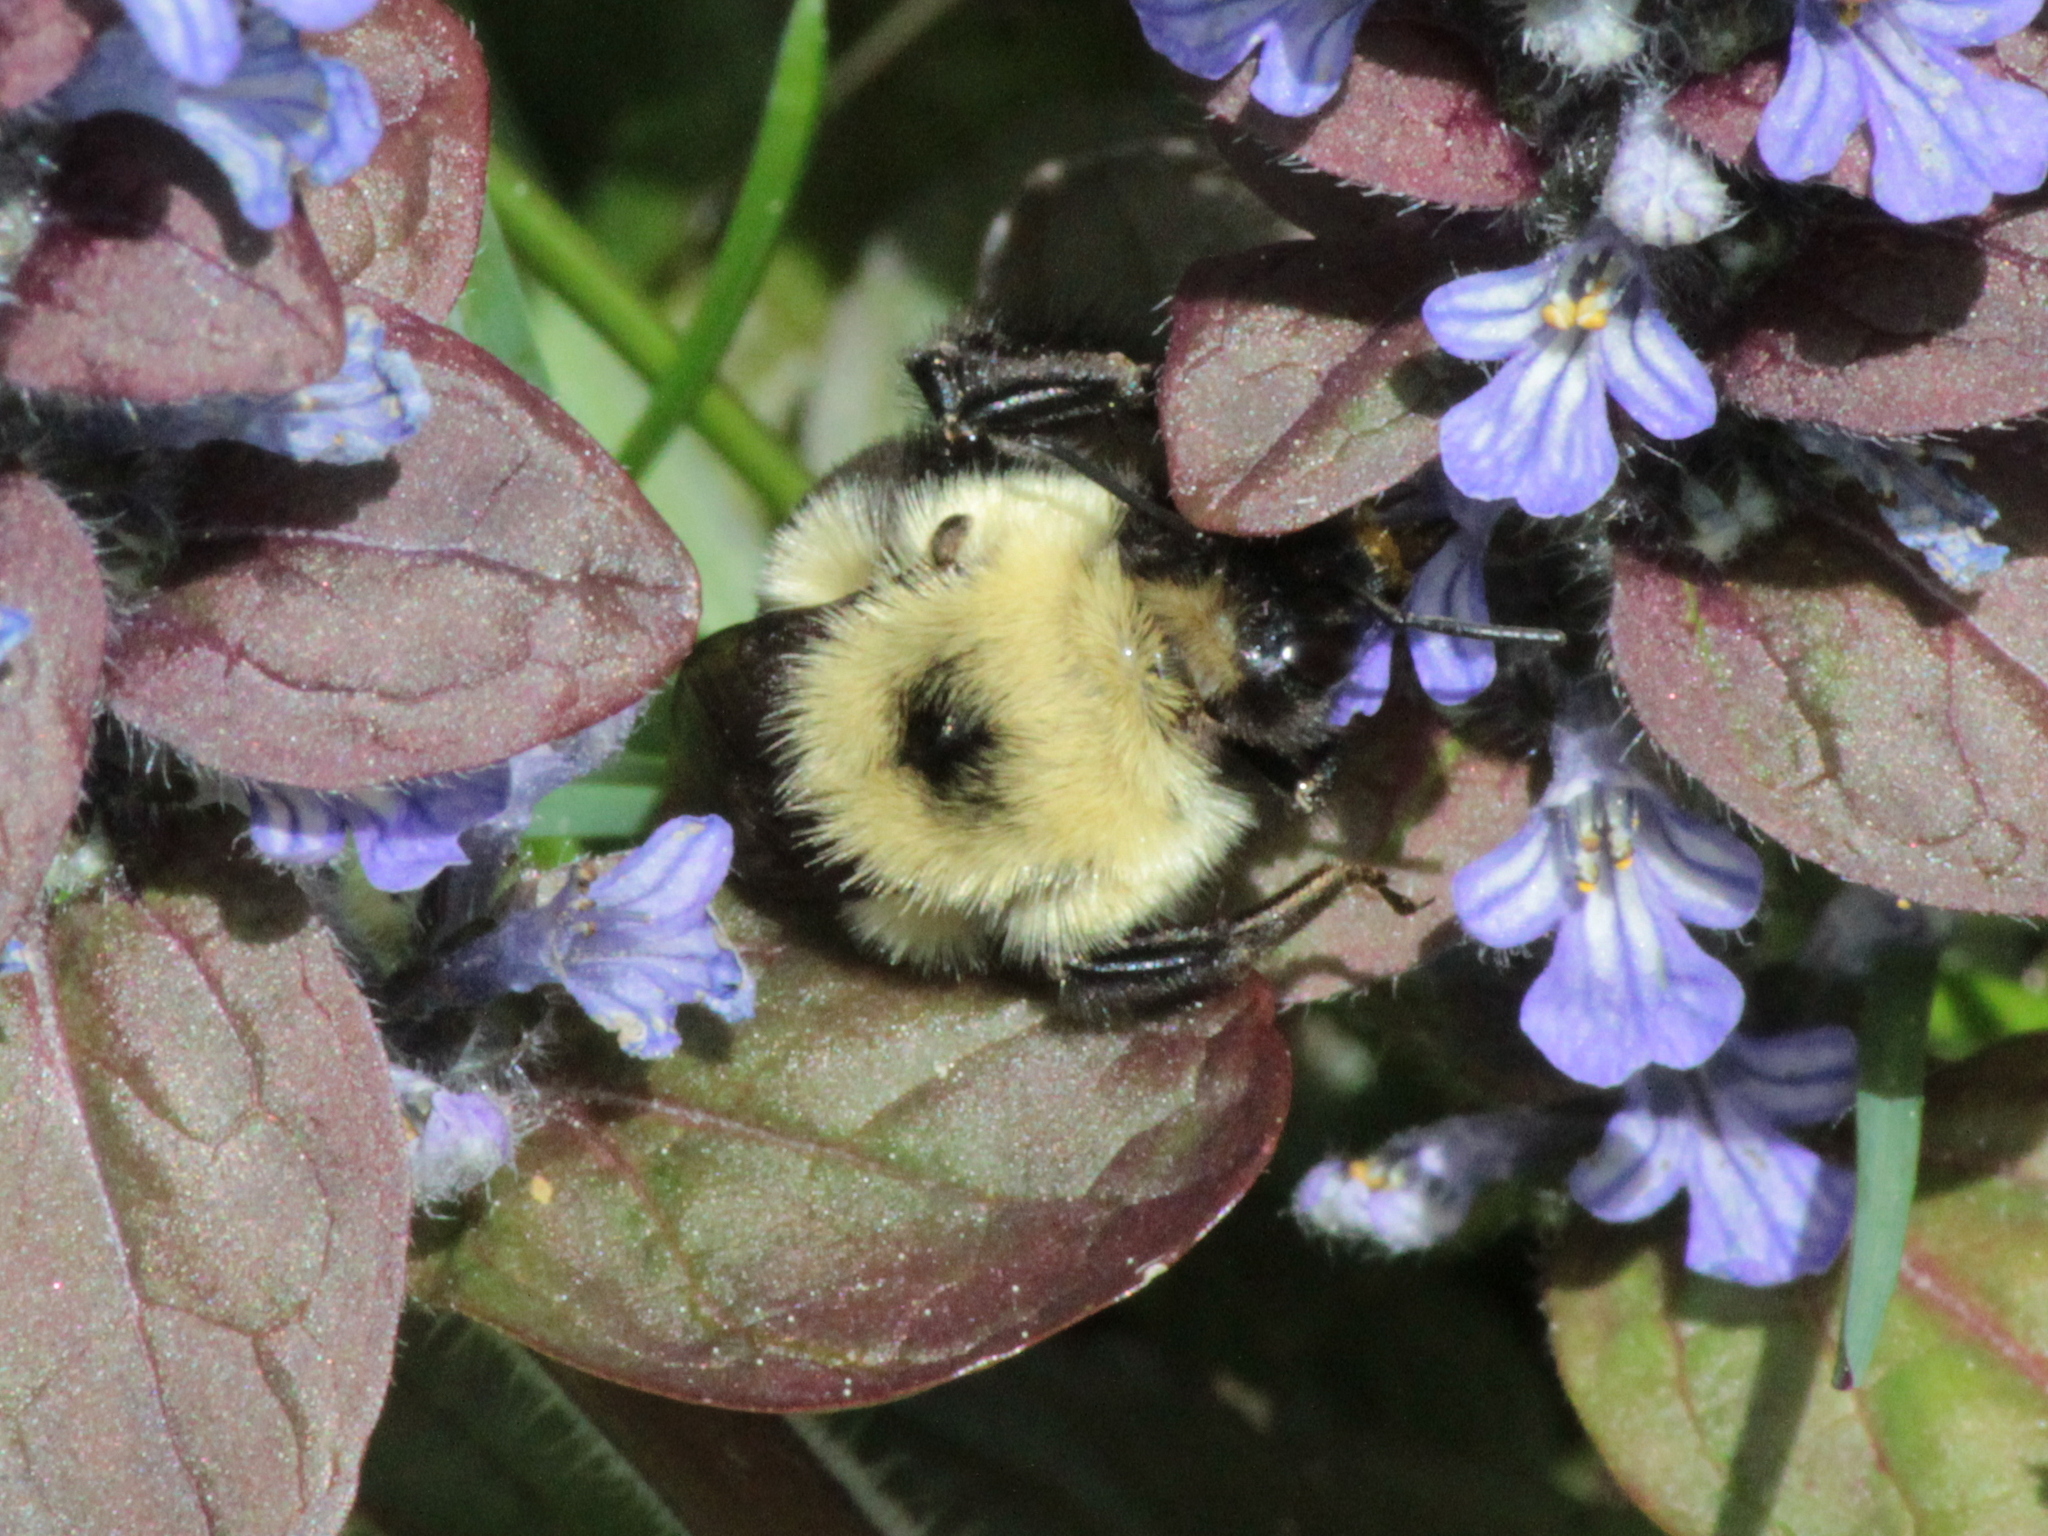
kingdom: Animalia
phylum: Arthropoda
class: Insecta
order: Hymenoptera
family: Apidae
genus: Bombus
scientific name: Bombus bimaculatus
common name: Two-spotted bumble bee
